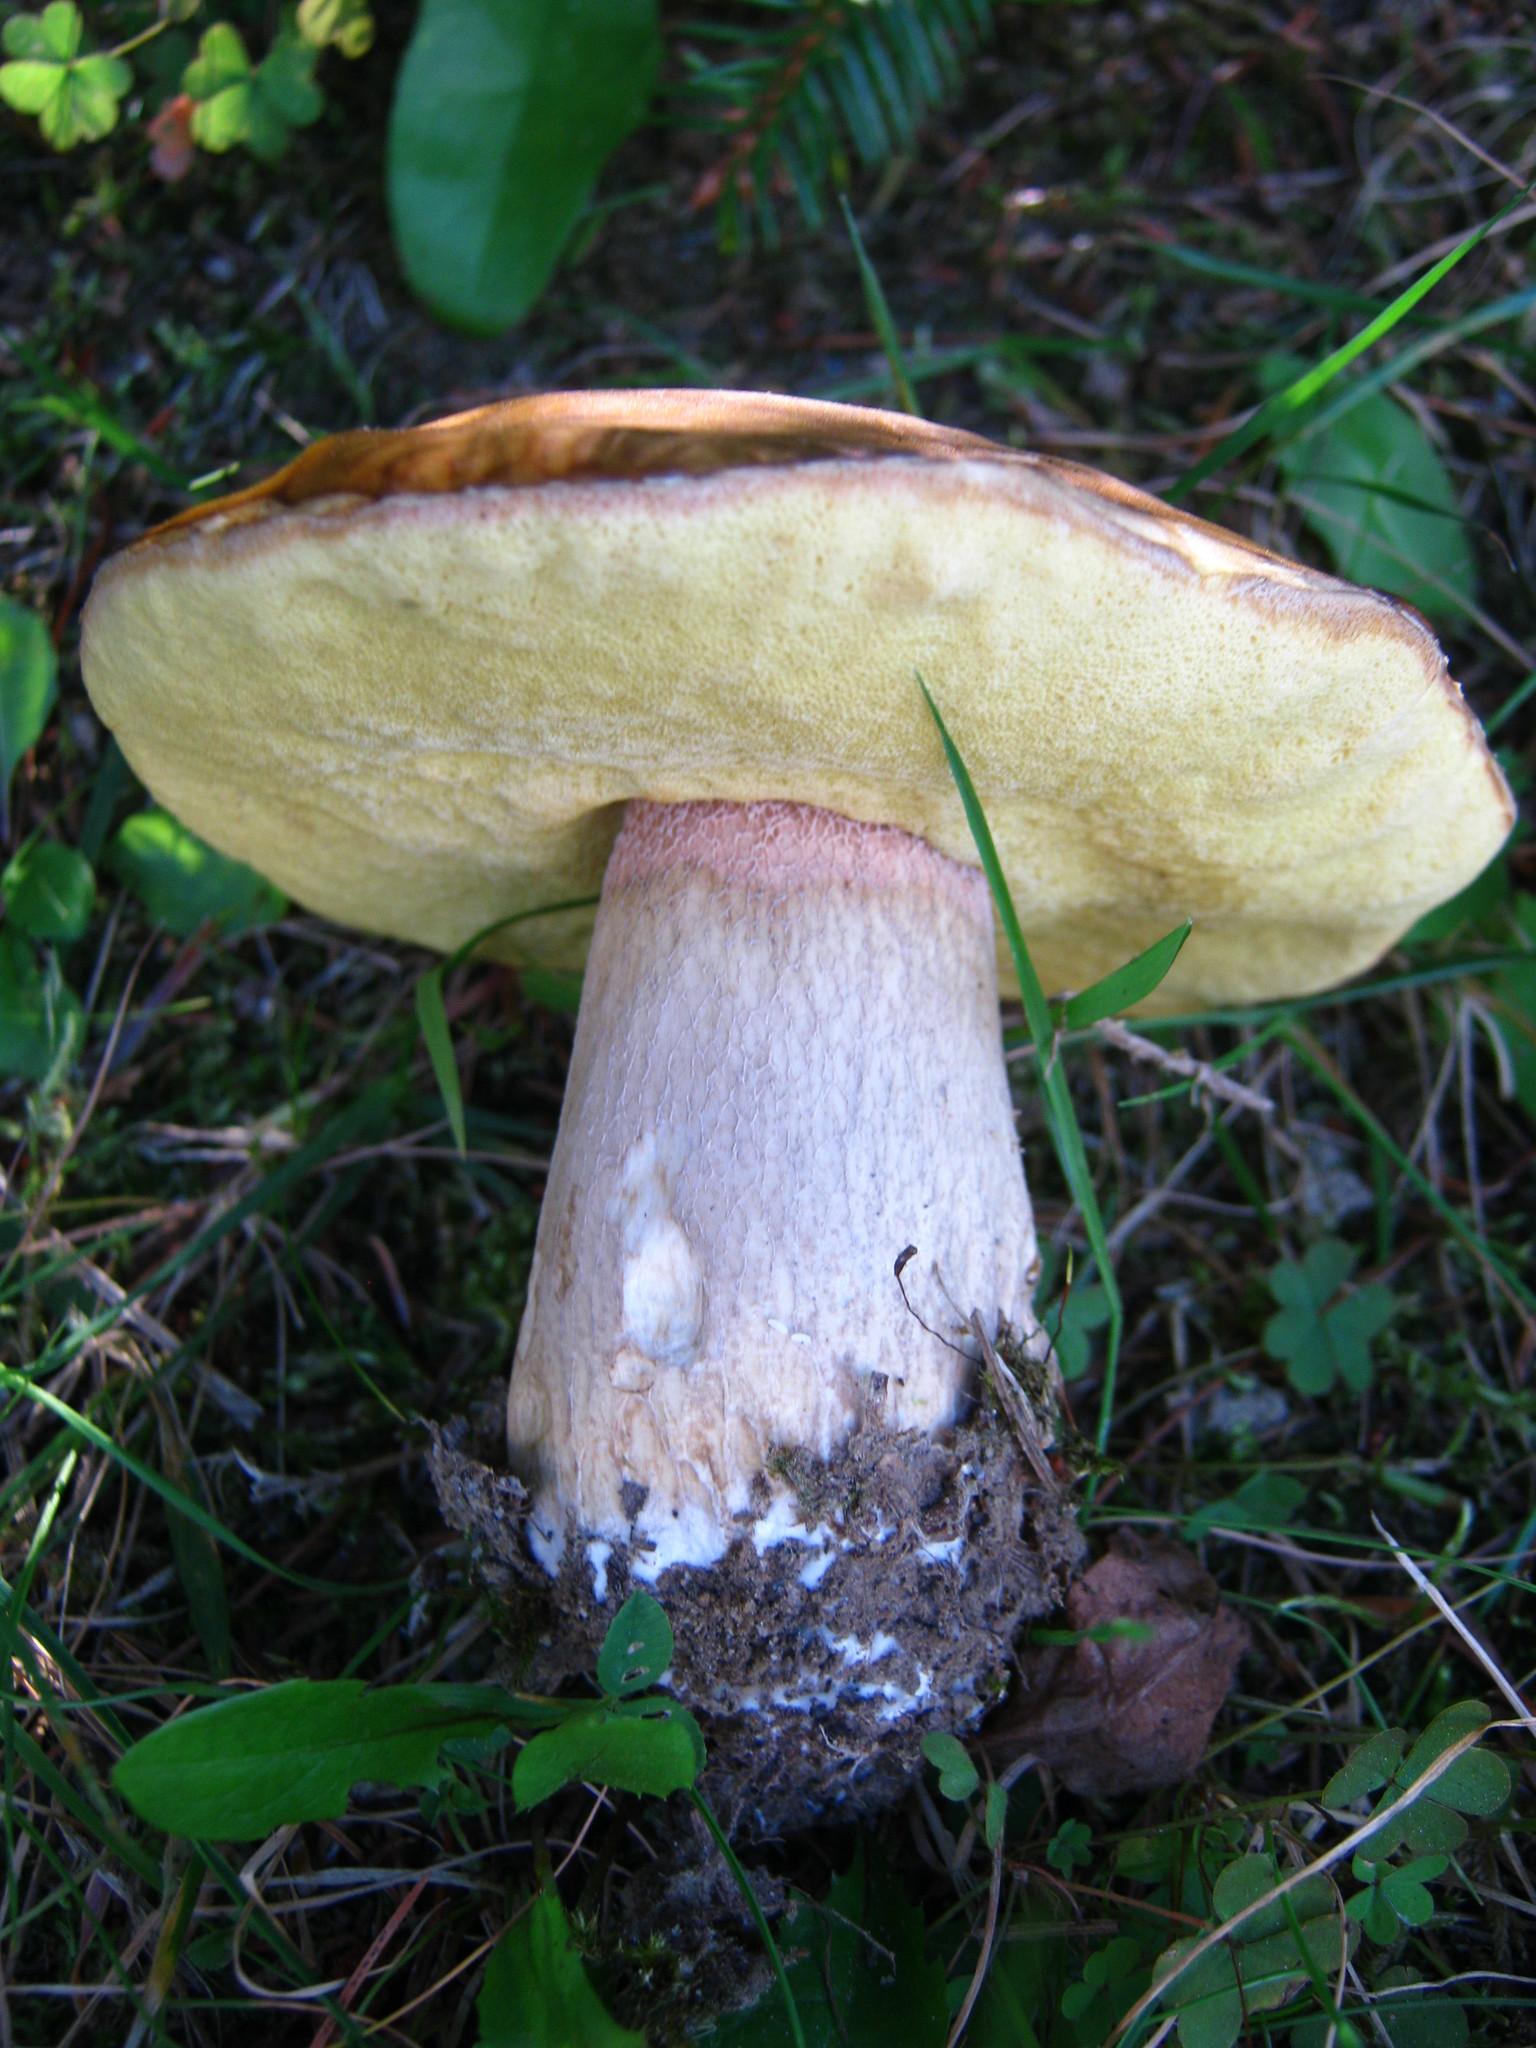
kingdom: Fungi
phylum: Basidiomycota
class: Agaricomycetes
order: Boletales
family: Boletaceae
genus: Boletus
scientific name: Boletus chippewaensis
